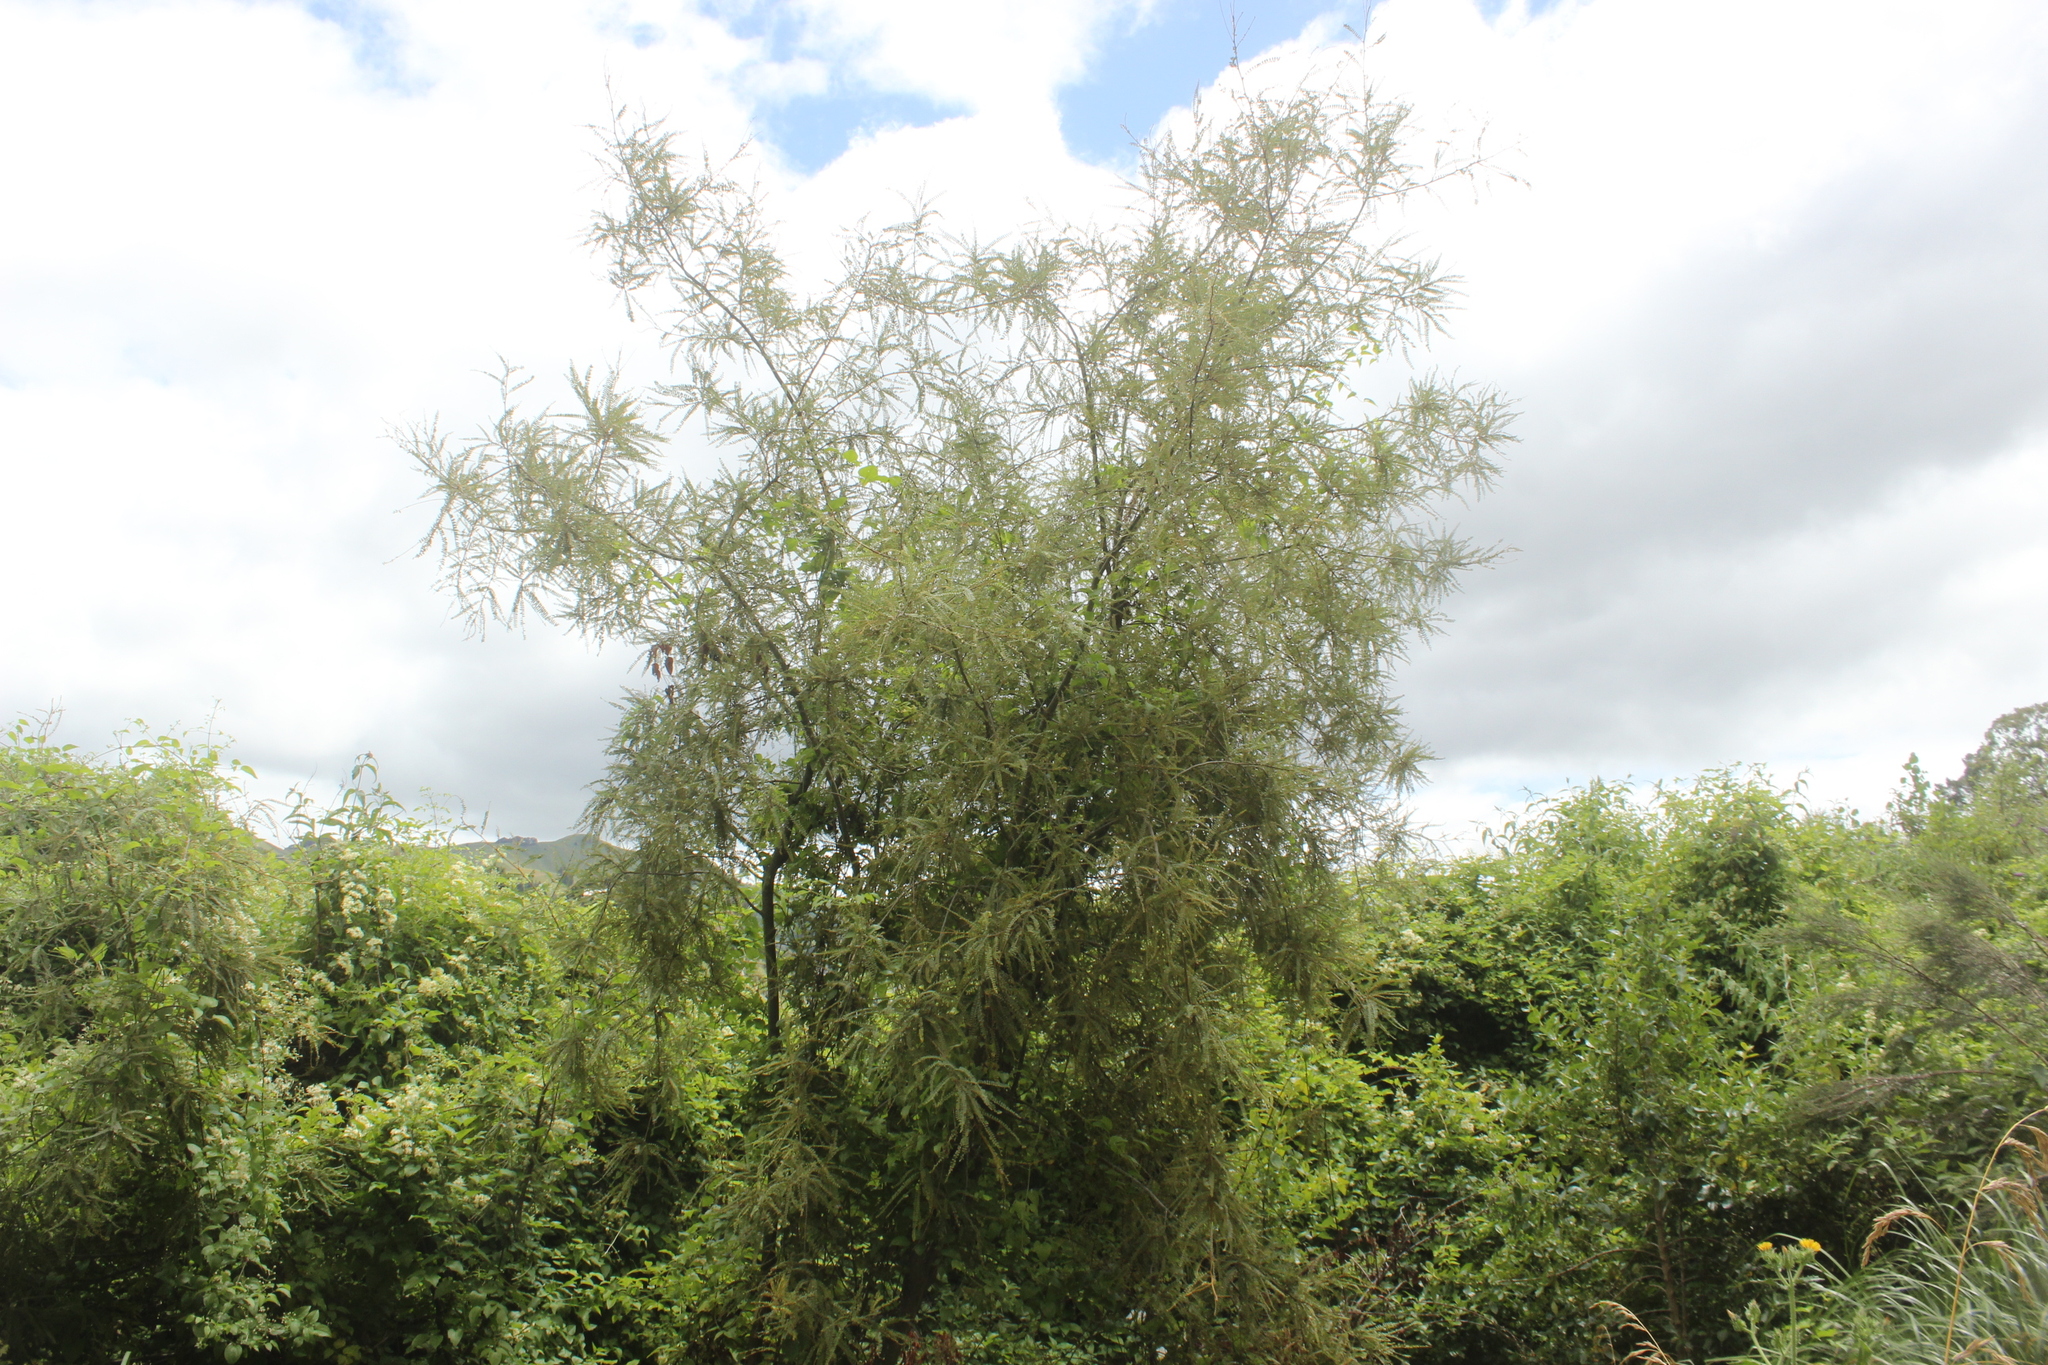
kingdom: Plantae
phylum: Tracheophyta
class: Magnoliopsida
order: Fabales
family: Fabaceae
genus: Sophora
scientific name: Sophora godleyi
